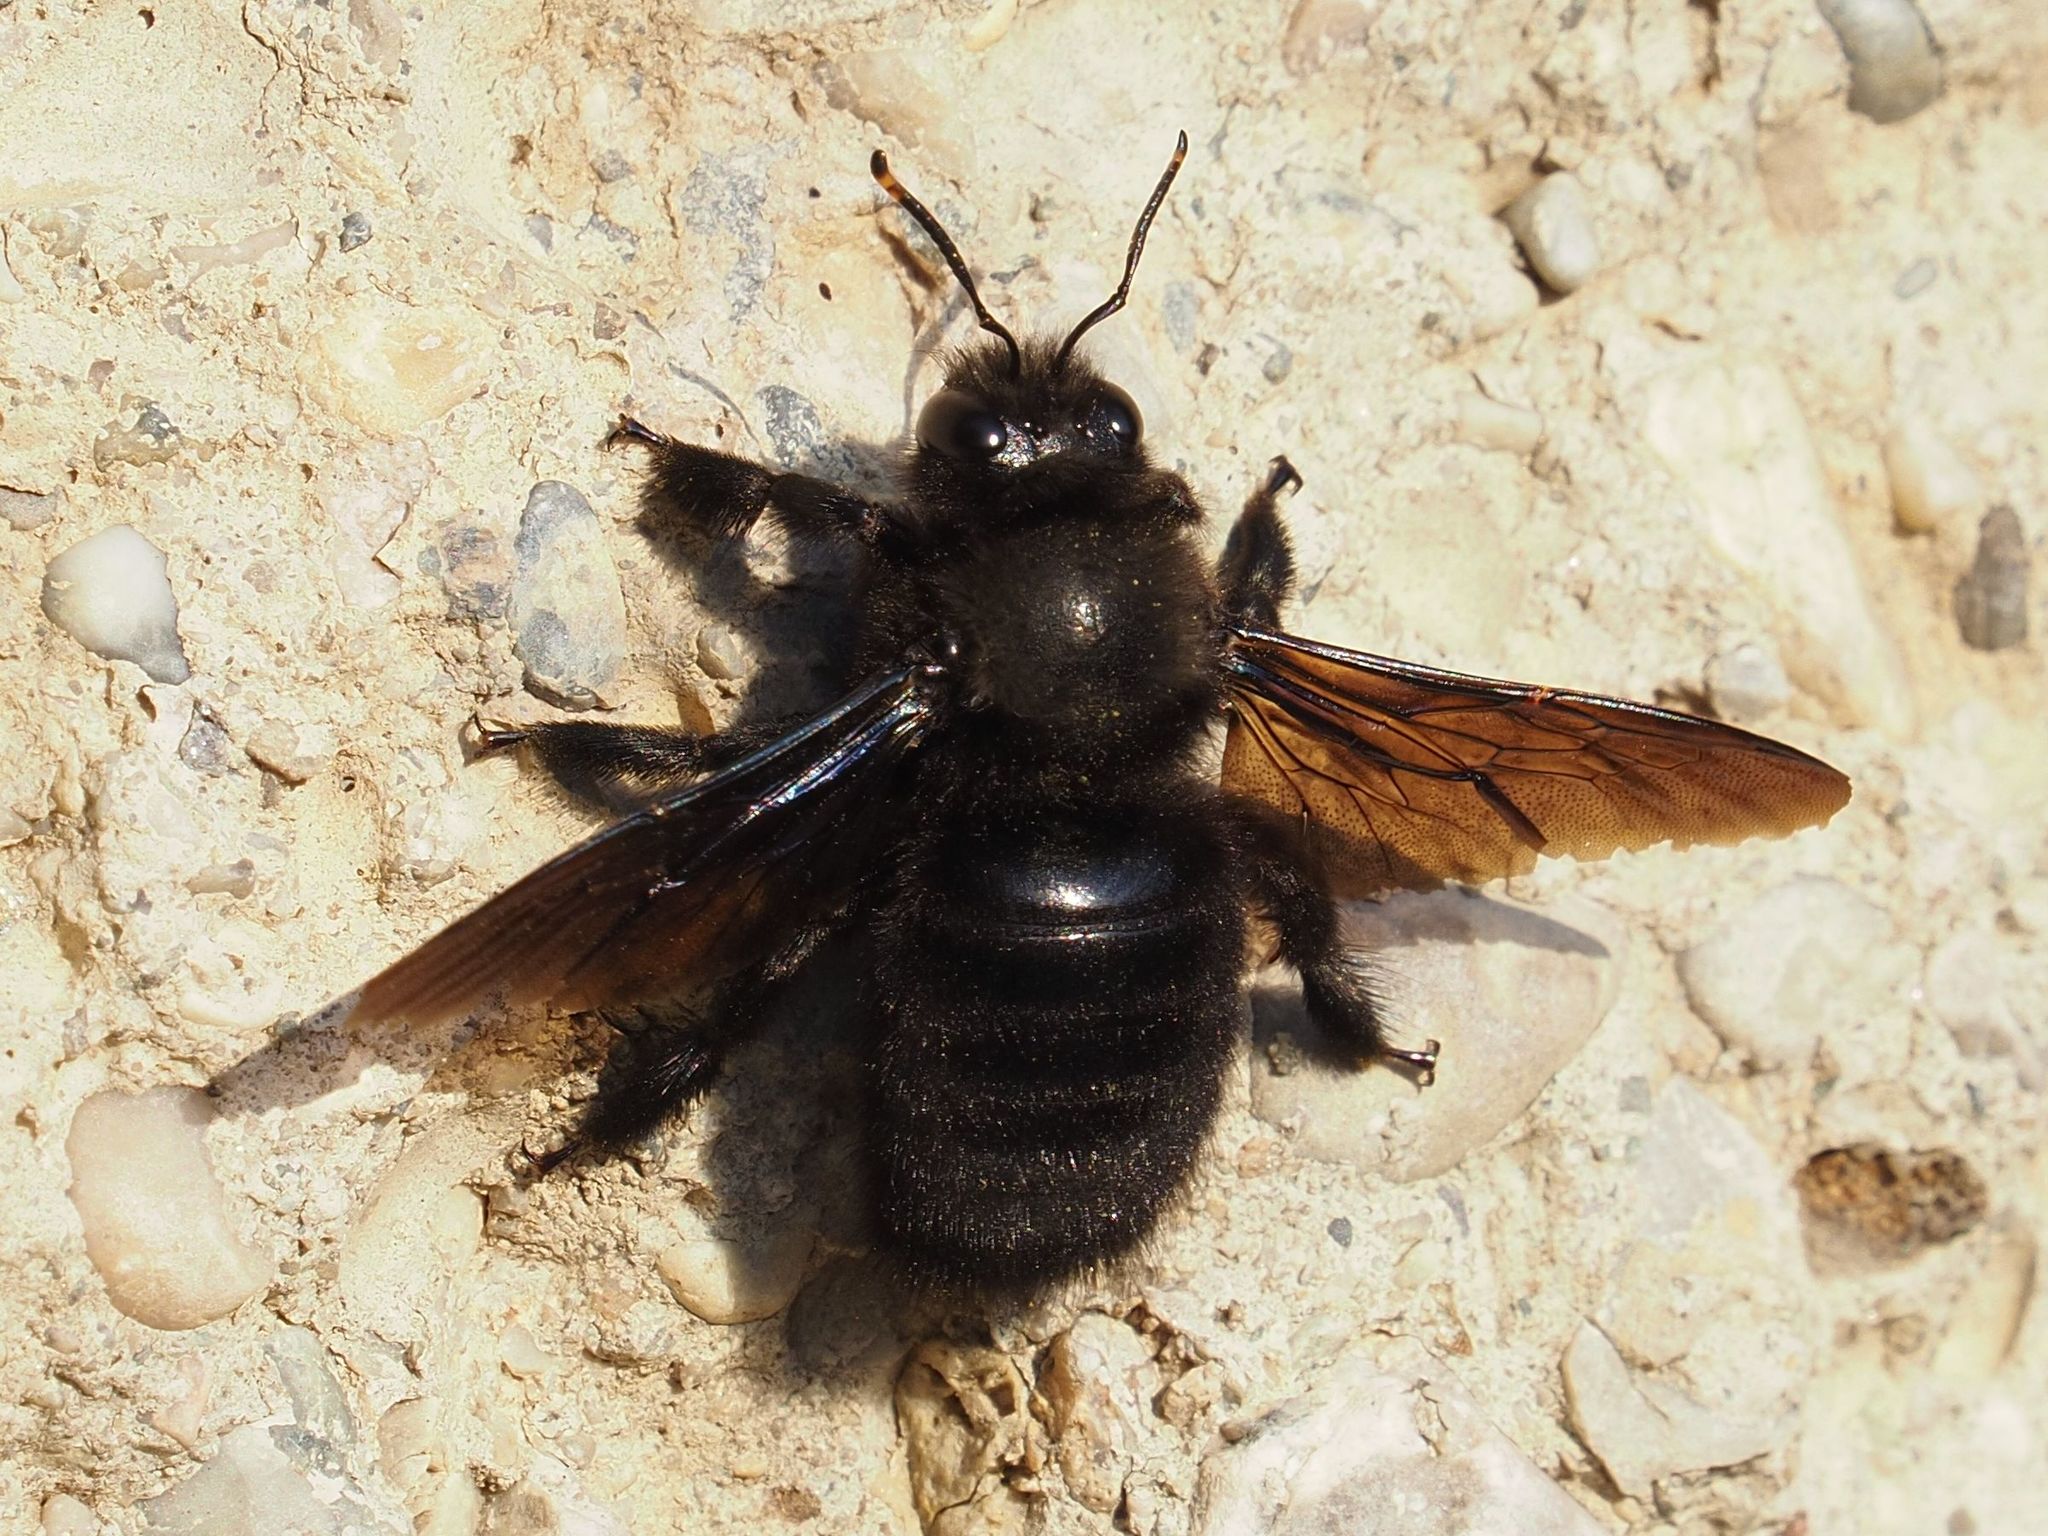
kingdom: Animalia
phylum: Arthropoda
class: Insecta
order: Hymenoptera
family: Apidae
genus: Xylocopa
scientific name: Xylocopa violacea
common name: Violet carpenter bee
